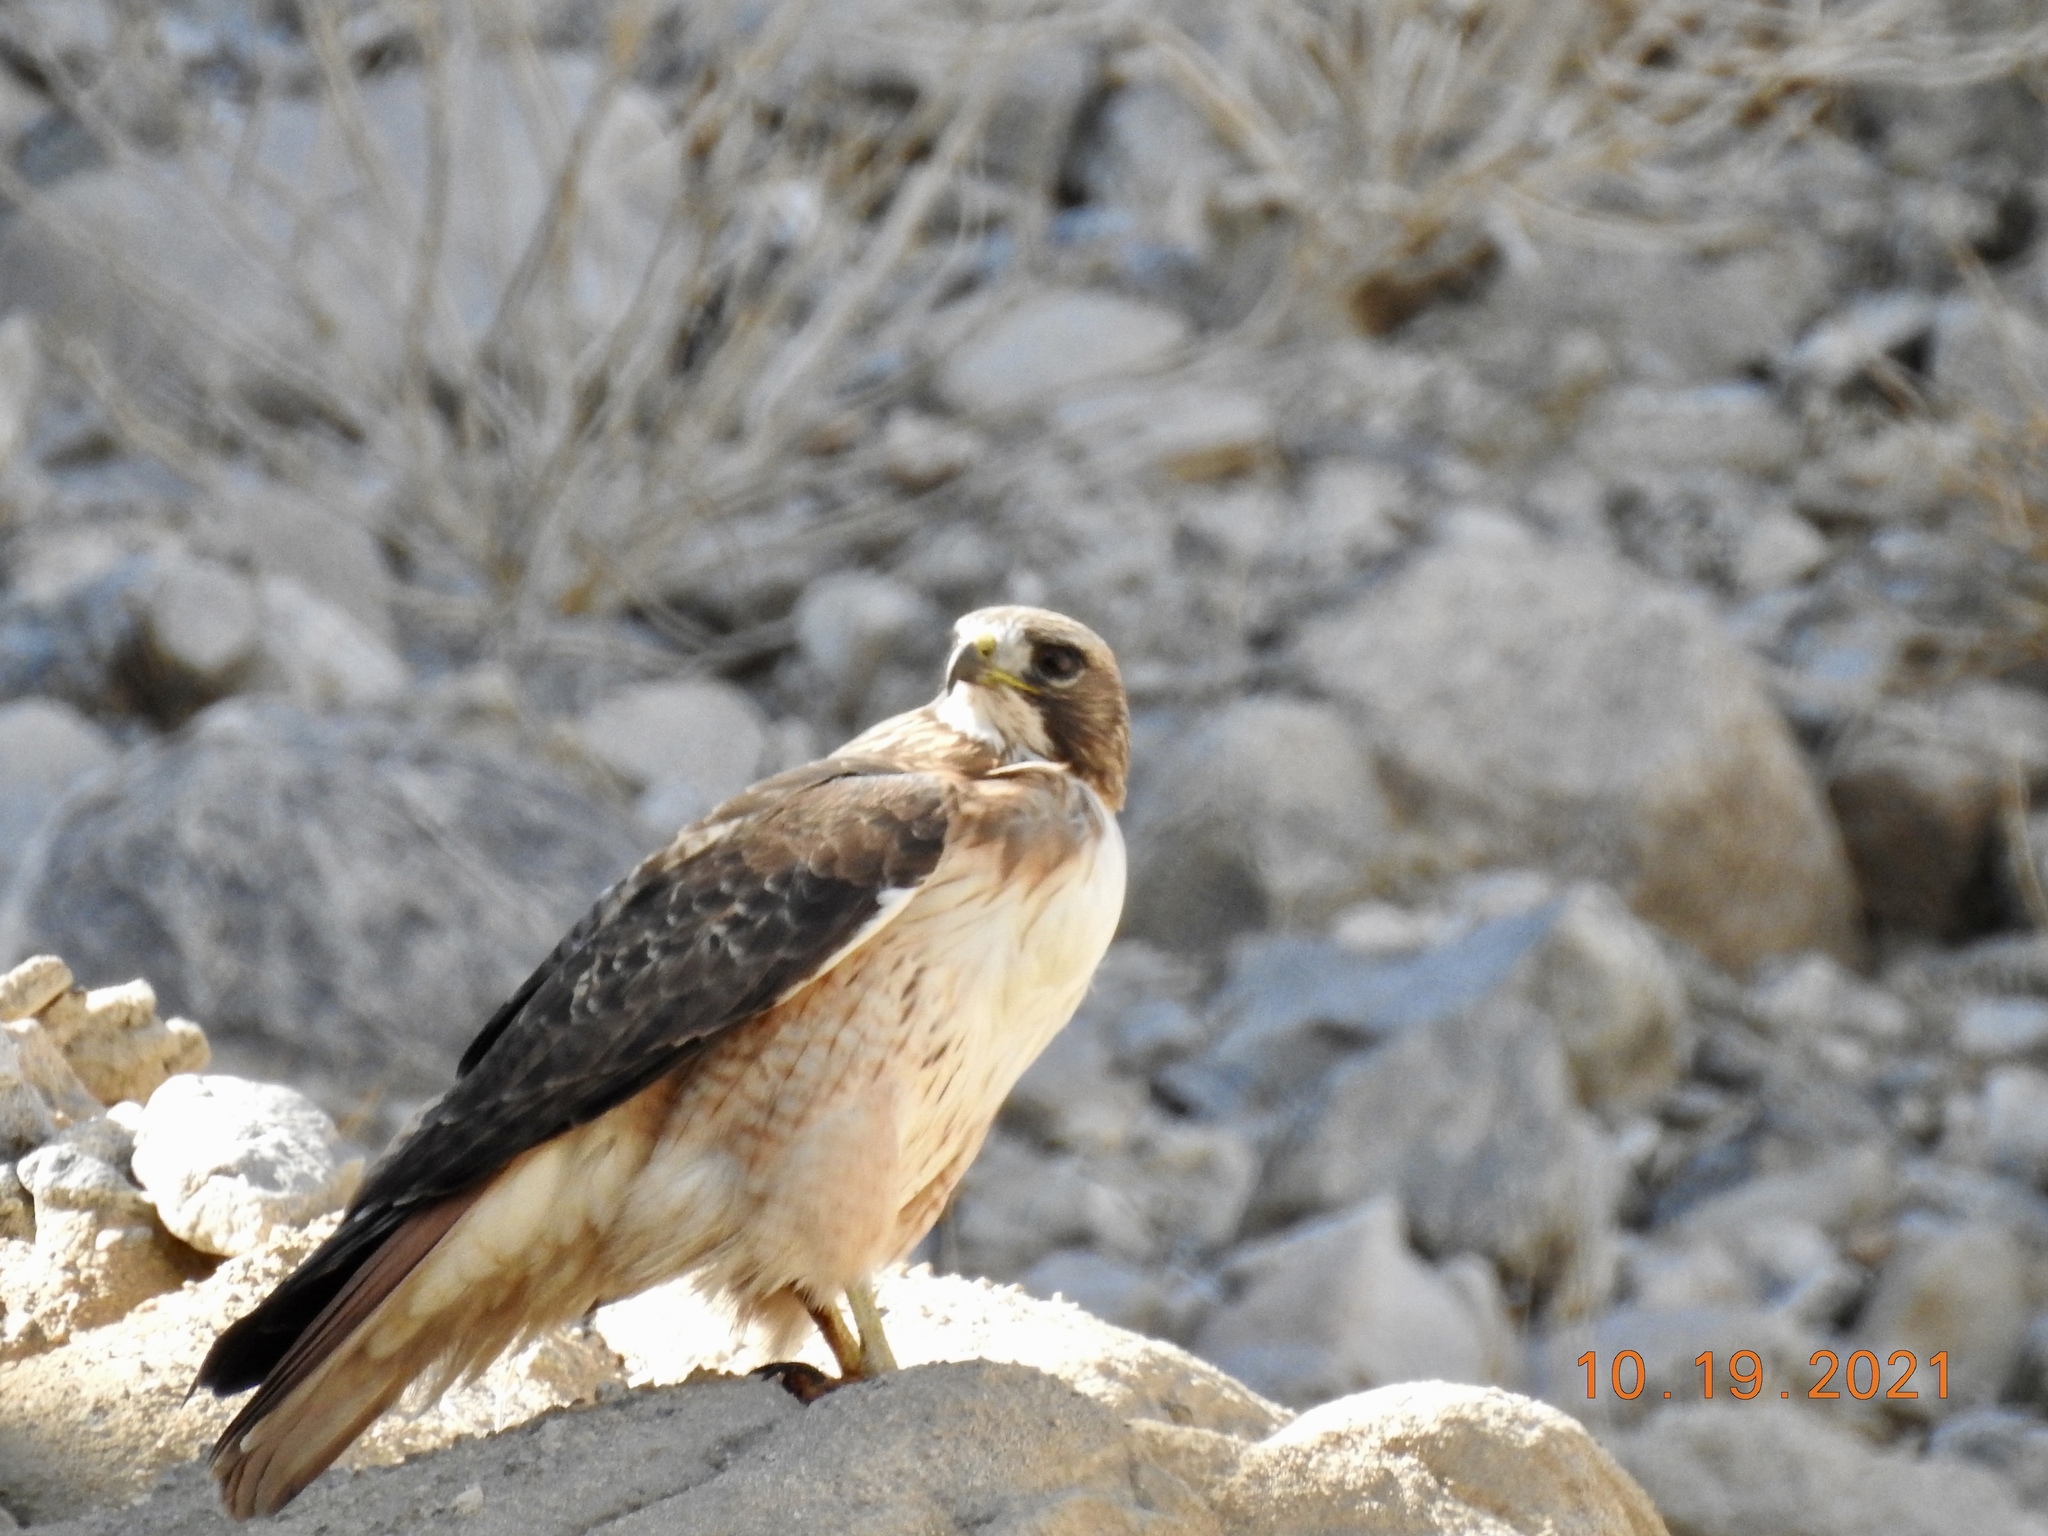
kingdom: Animalia
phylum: Chordata
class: Aves
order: Accipitriformes
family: Accipitridae
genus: Buteo
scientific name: Buteo jamaicensis
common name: Red-tailed hawk
